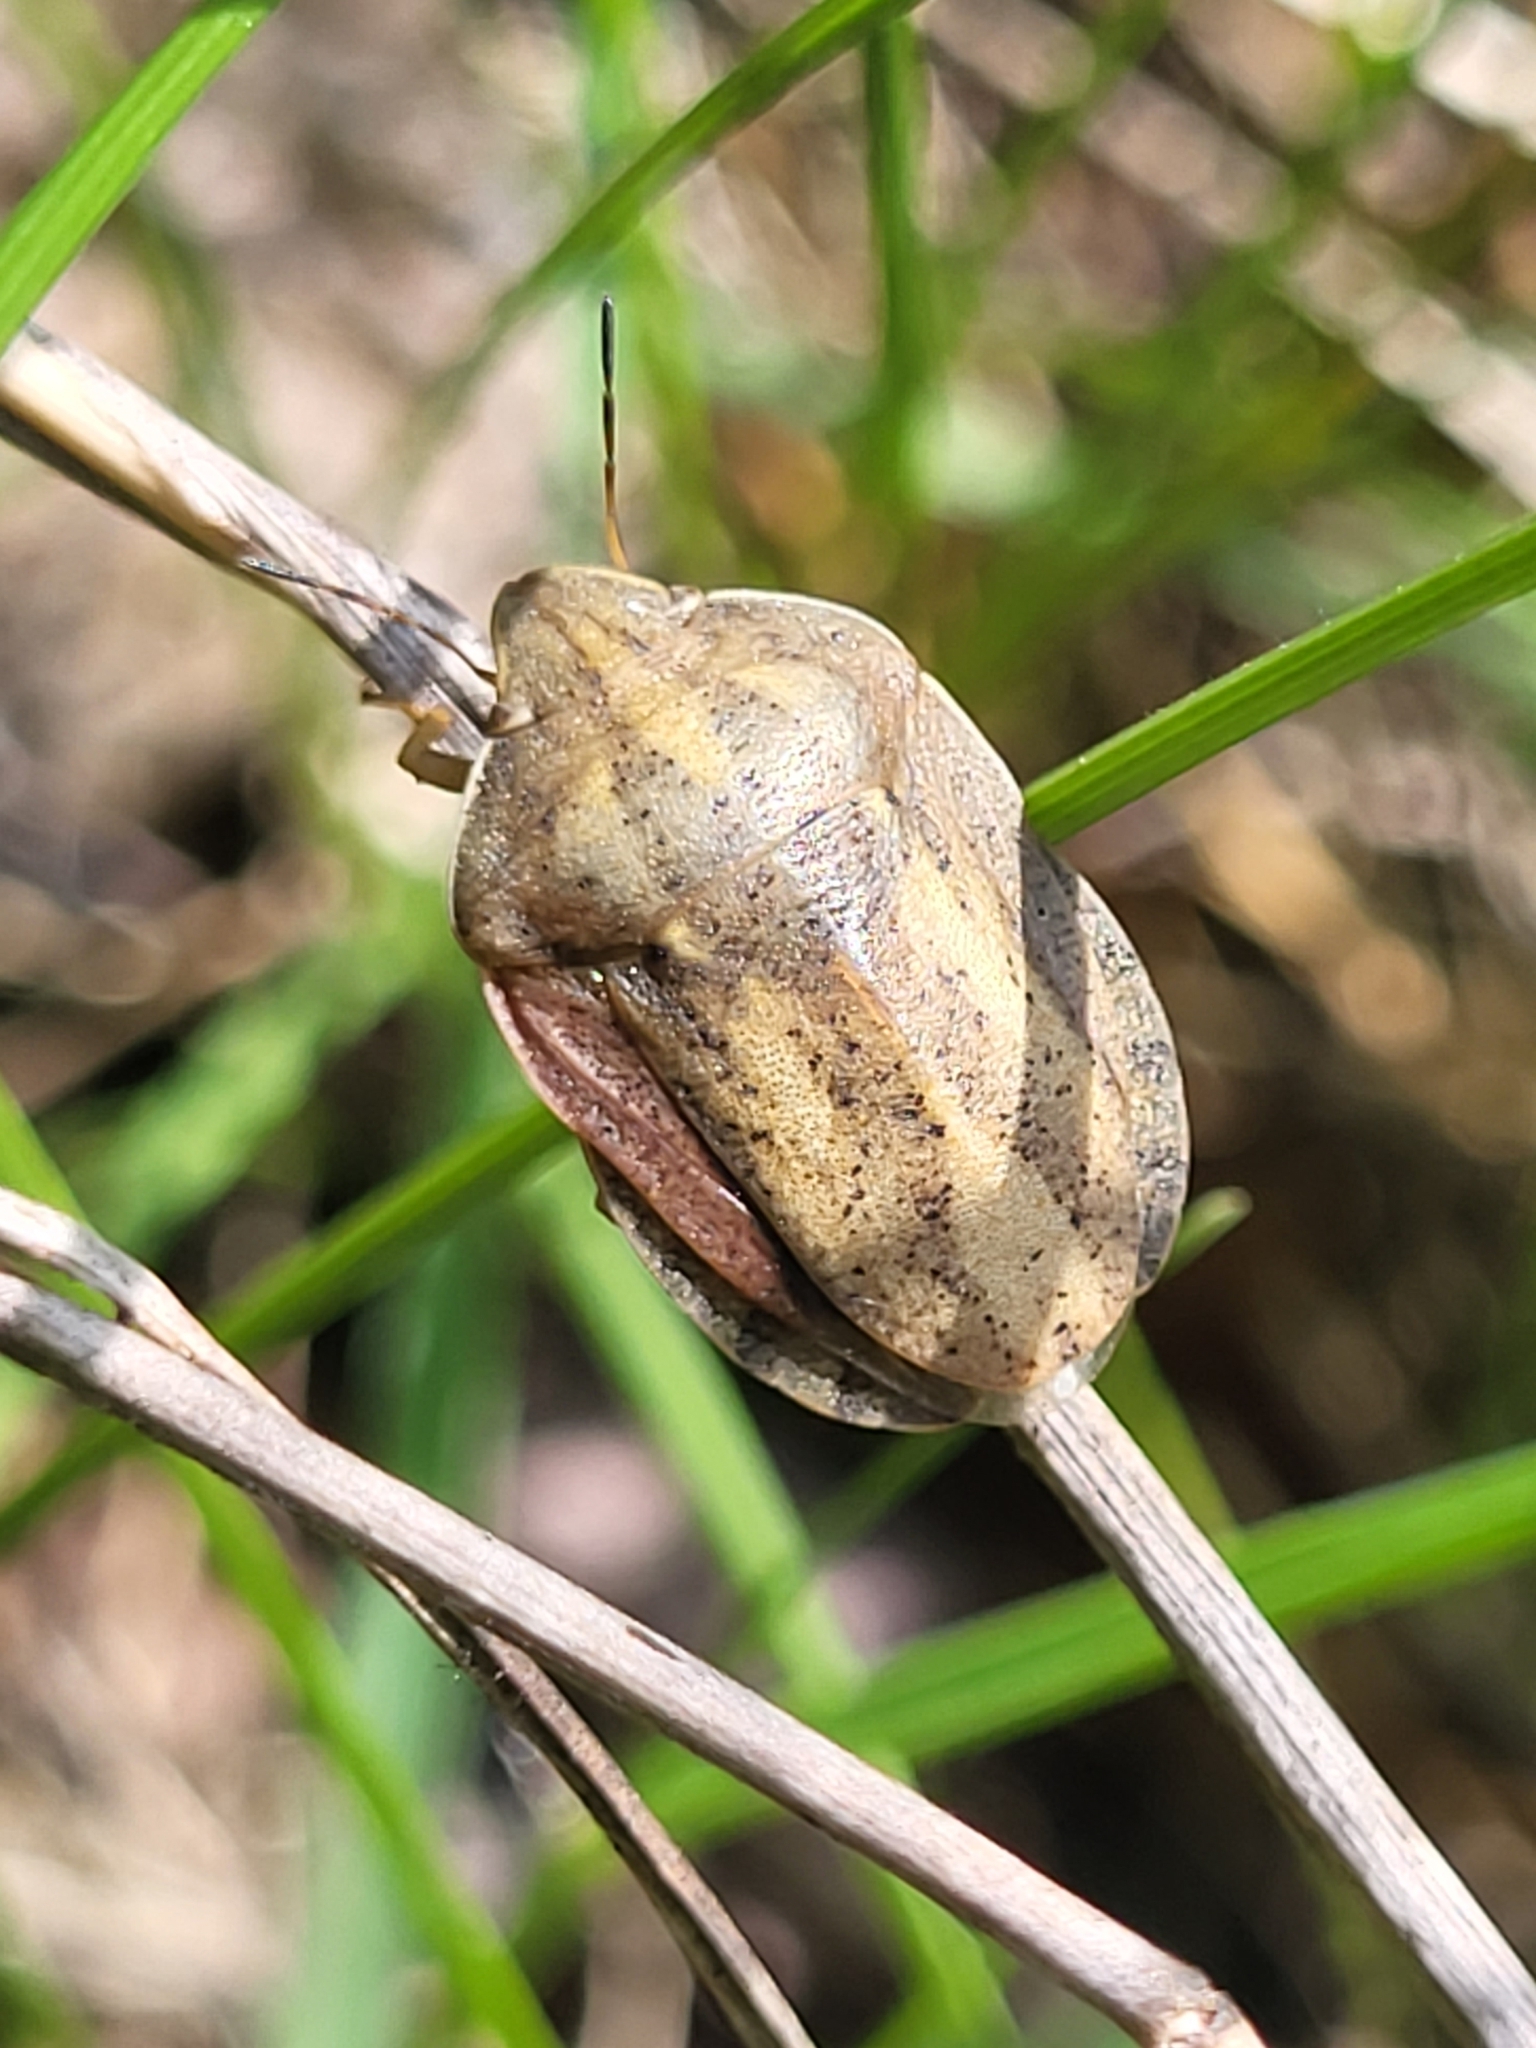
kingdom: Animalia
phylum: Arthropoda
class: Insecta
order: Hemiptera
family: Scutelleridae
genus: Eurygaster
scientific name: Eurygaster austriaca
